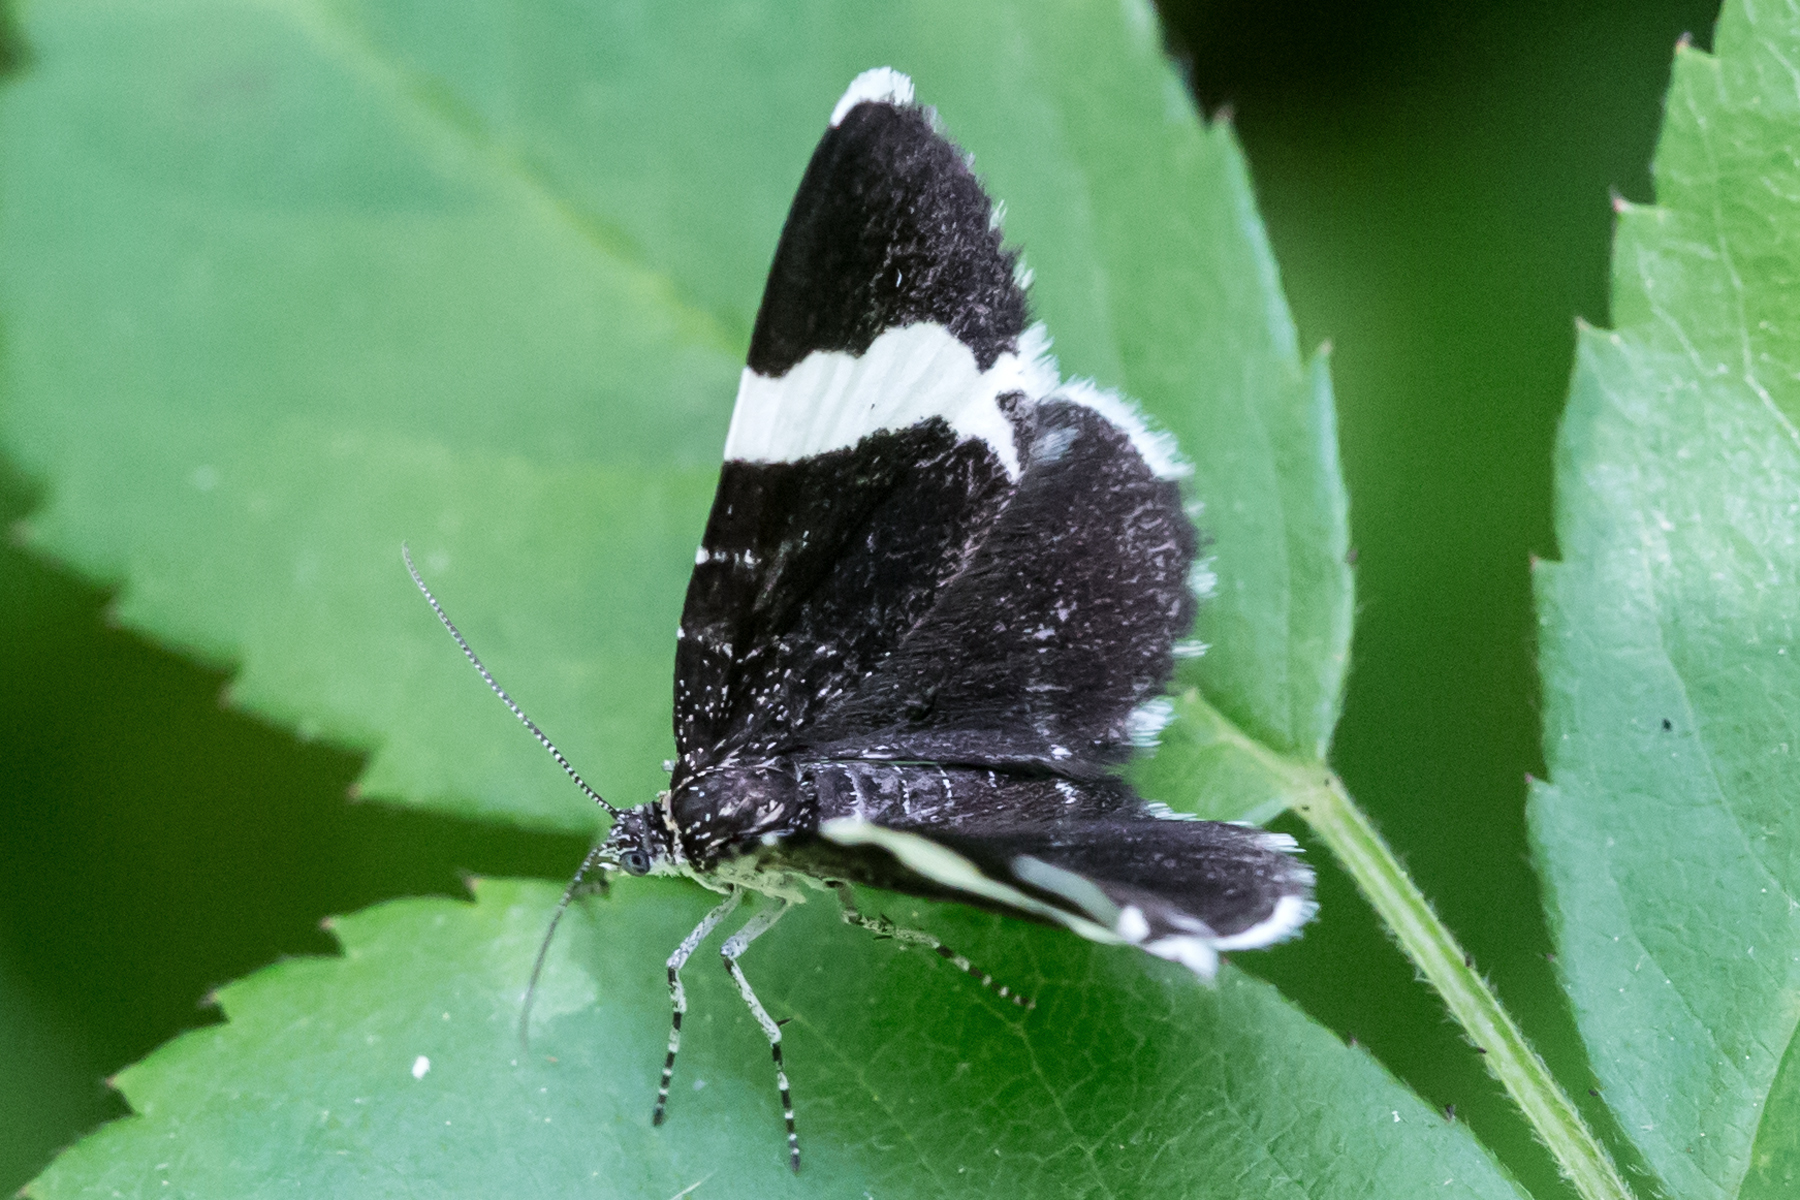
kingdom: Animalia
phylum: Arthropoda
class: Insecta
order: Lepidoptera
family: Geometridae
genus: Trichodezia
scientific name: Trichodezia albovittata
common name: White striped black
